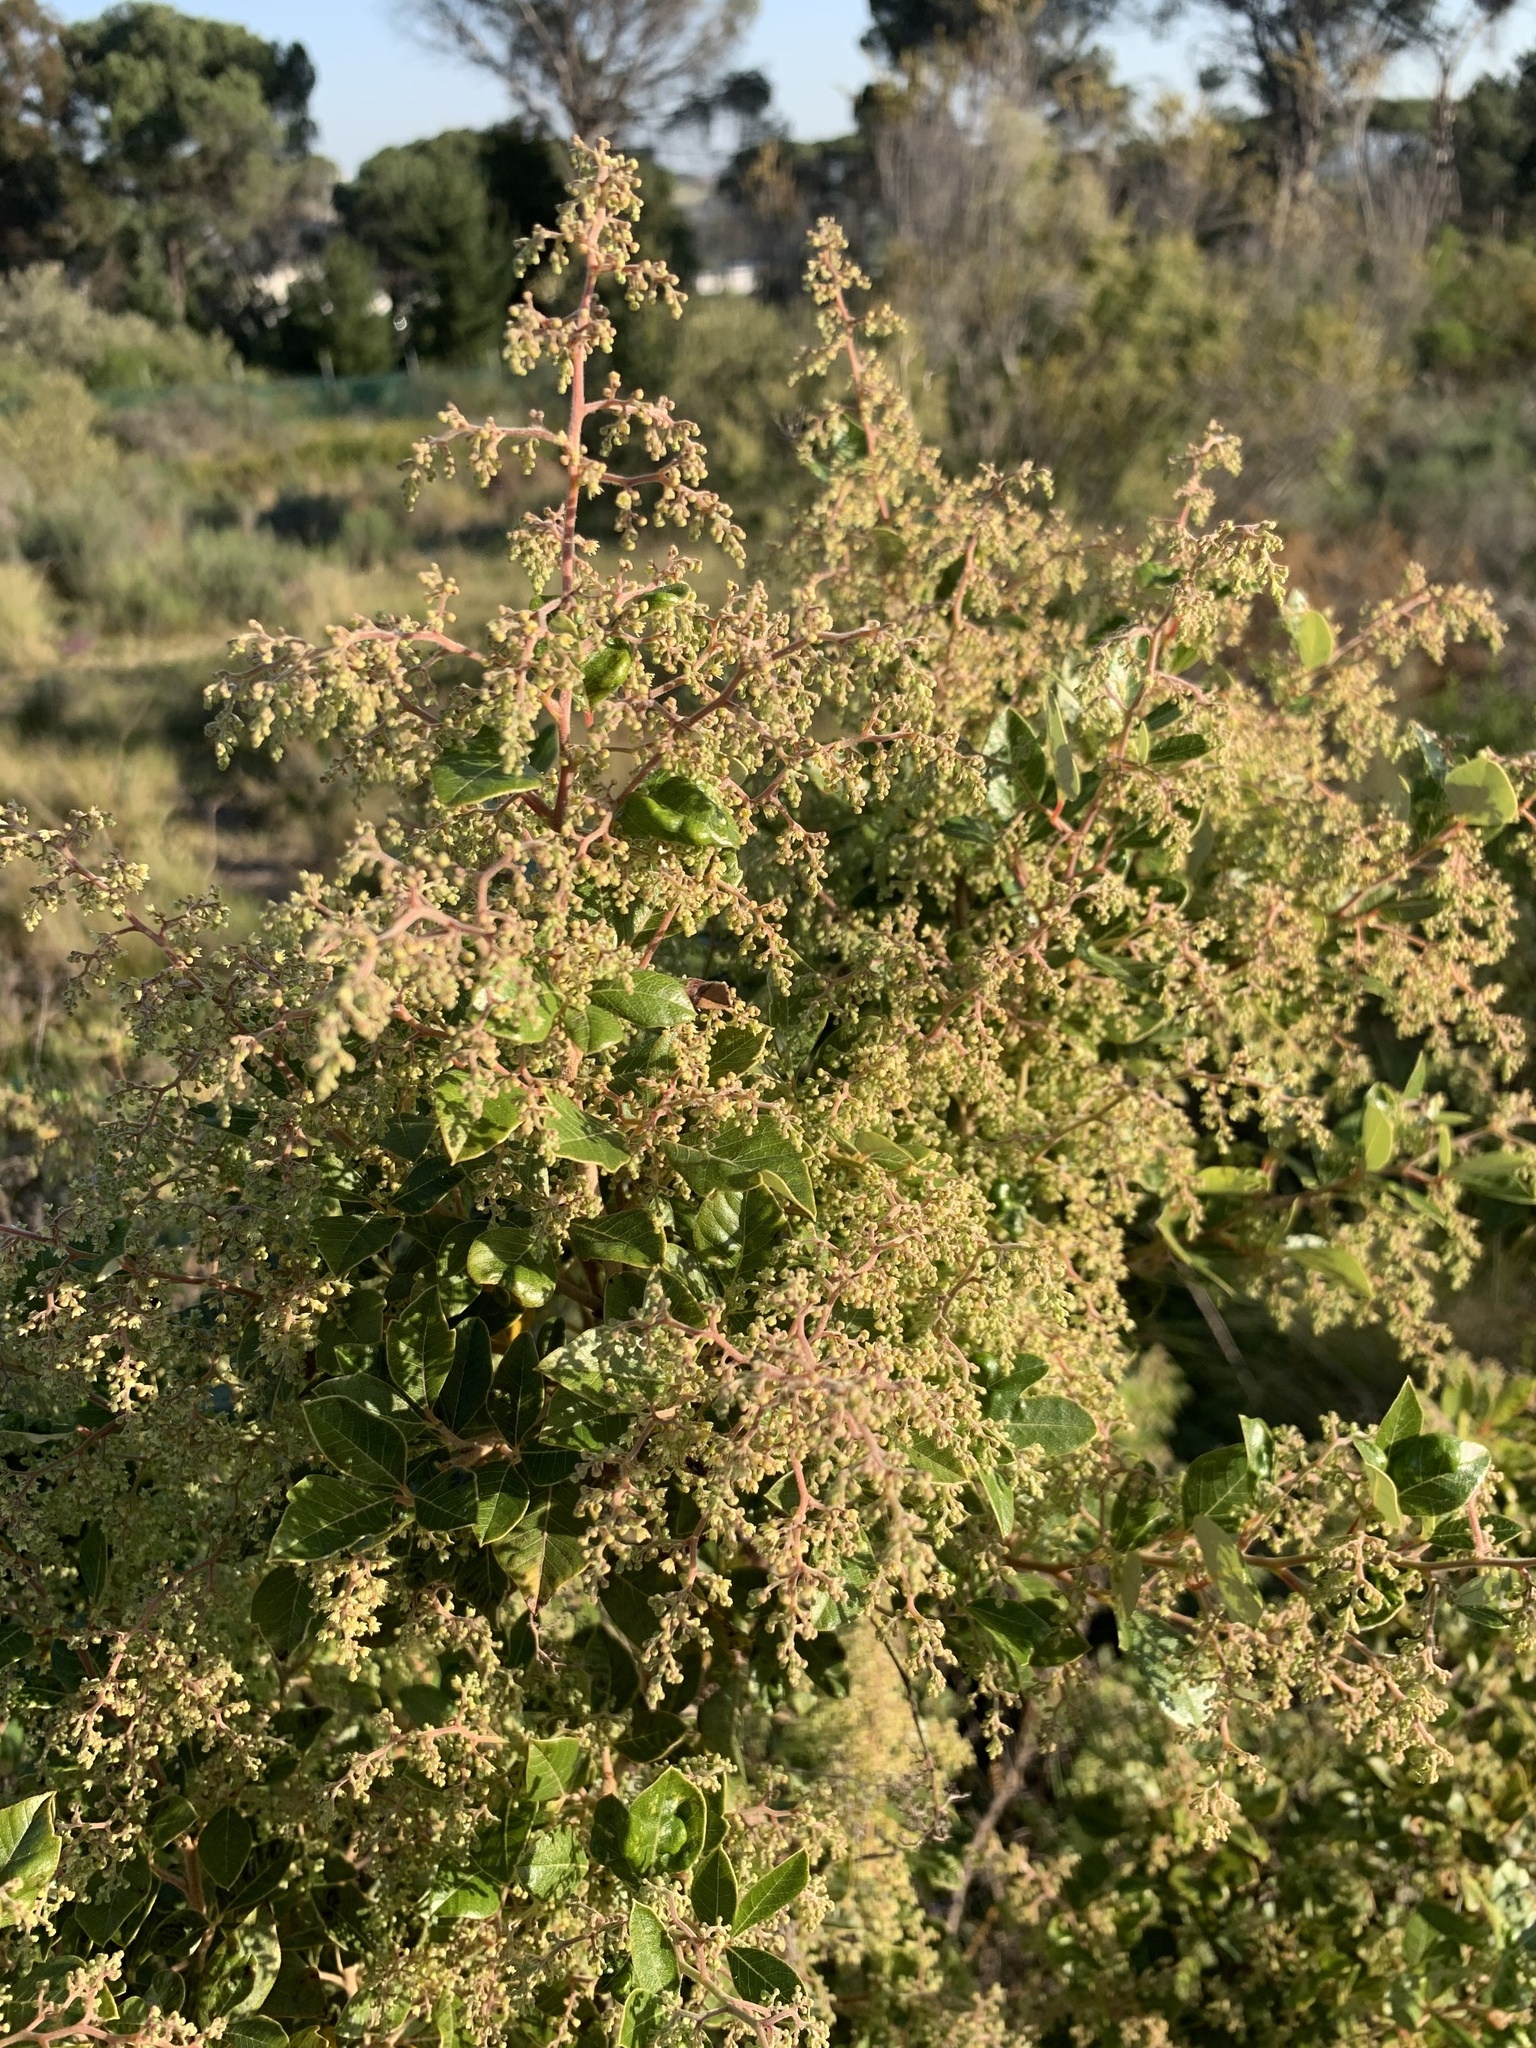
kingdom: Plantae
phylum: Tracheophyta
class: Magnoliopsida
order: Sapindales
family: Anacardiaceae
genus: Searsia
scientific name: Searsia tomentosa
